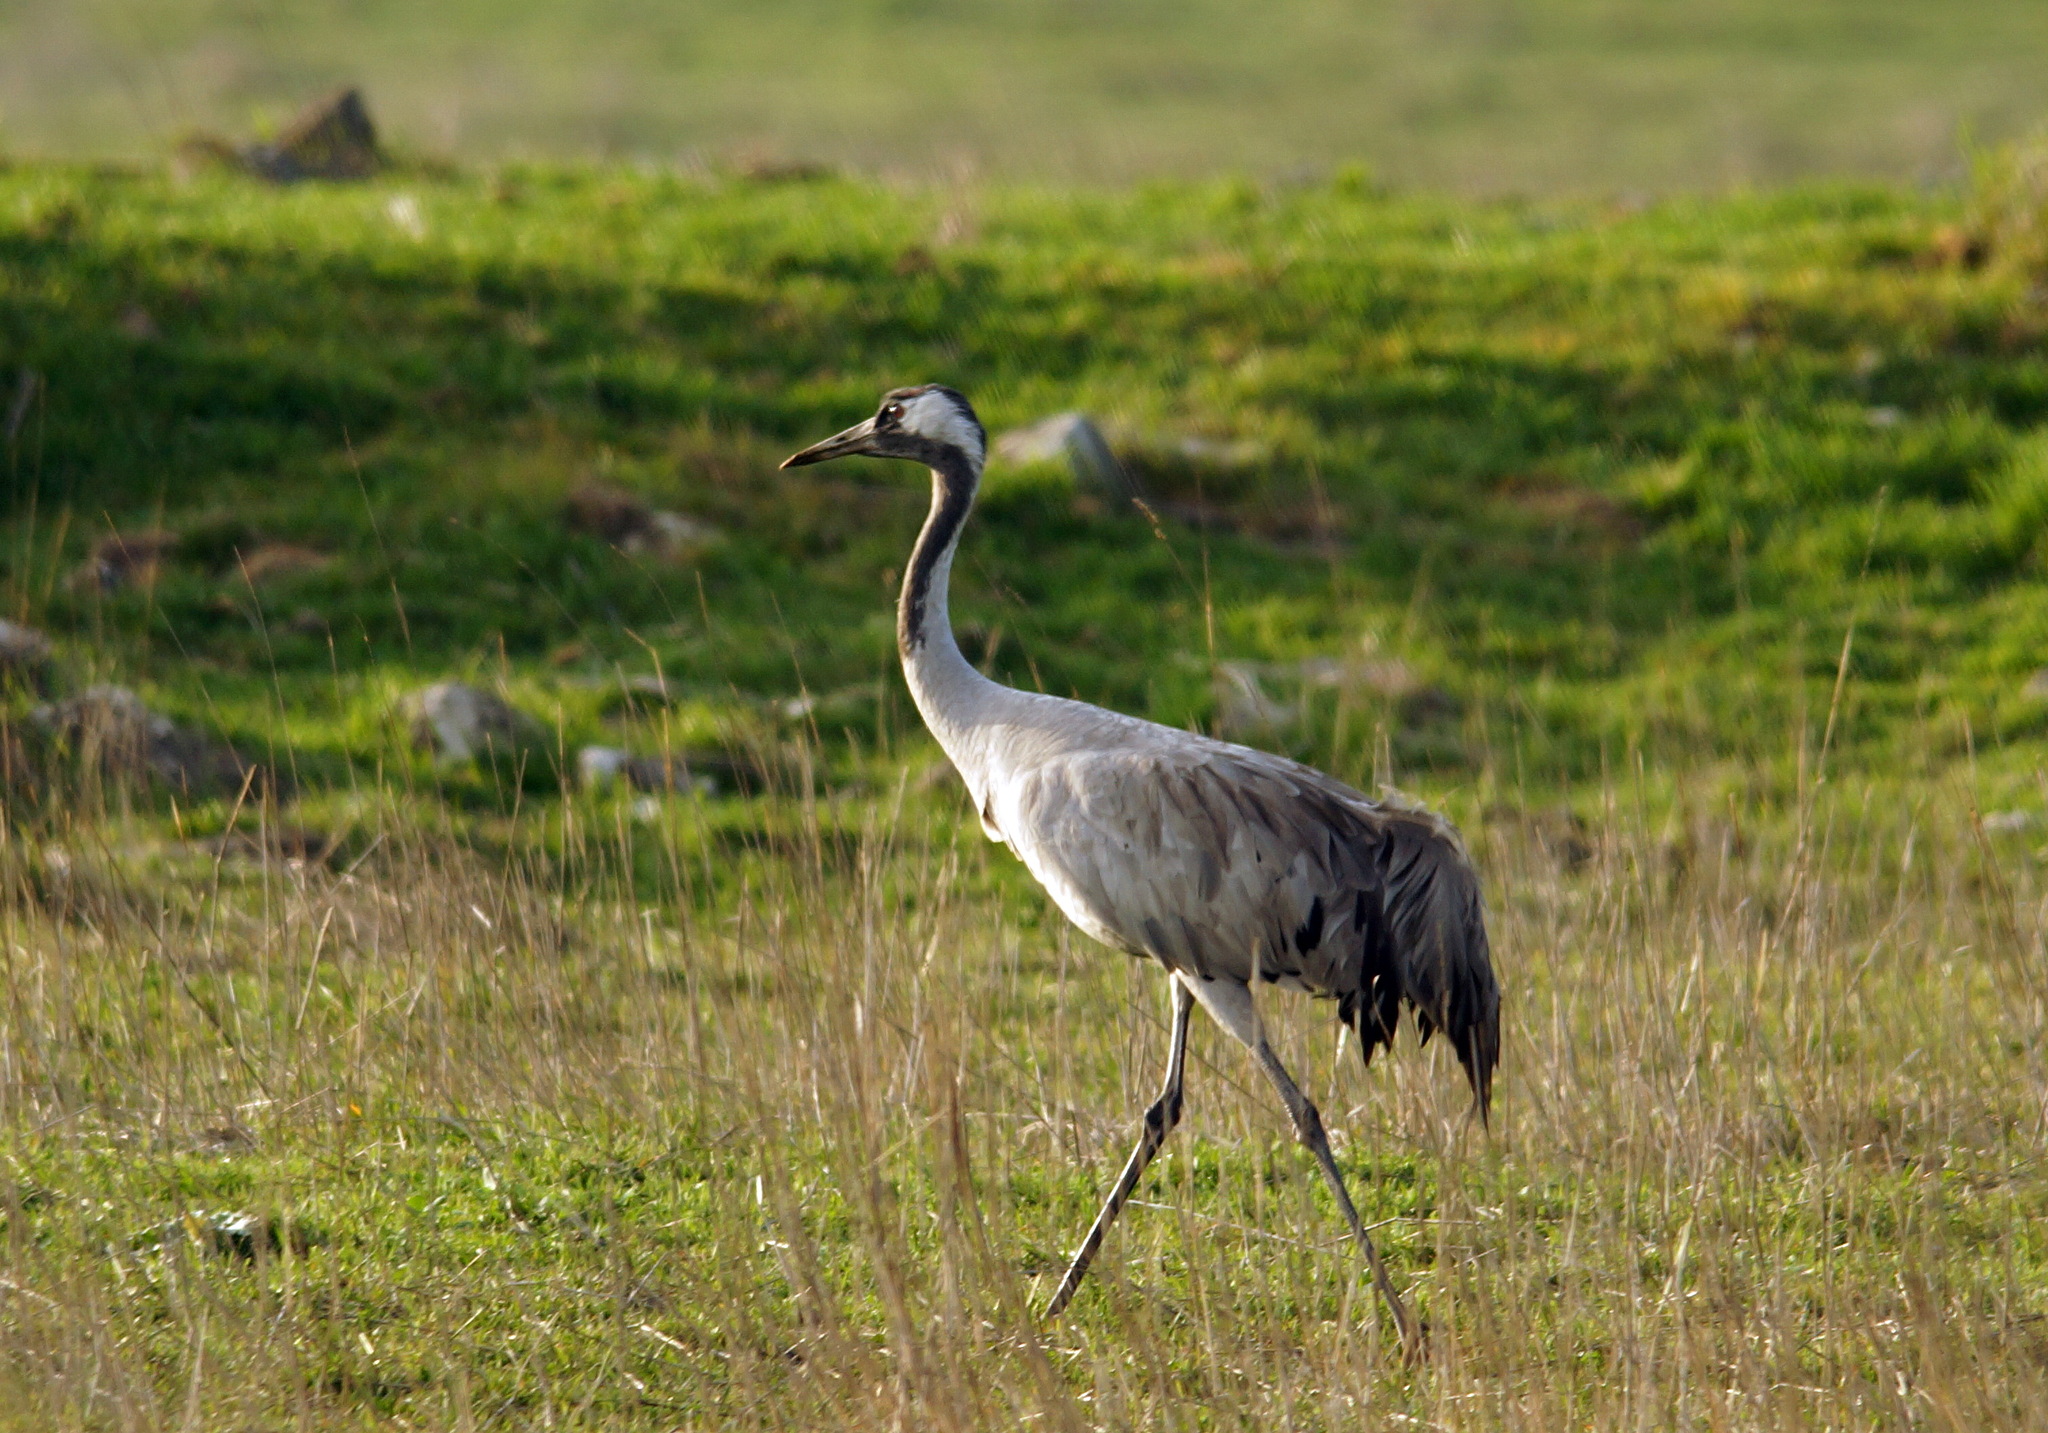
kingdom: Animalia
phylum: Chordata
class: Aves
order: Gruiformes
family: Gruidae
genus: Grus
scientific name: Grus grus
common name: Common crane
